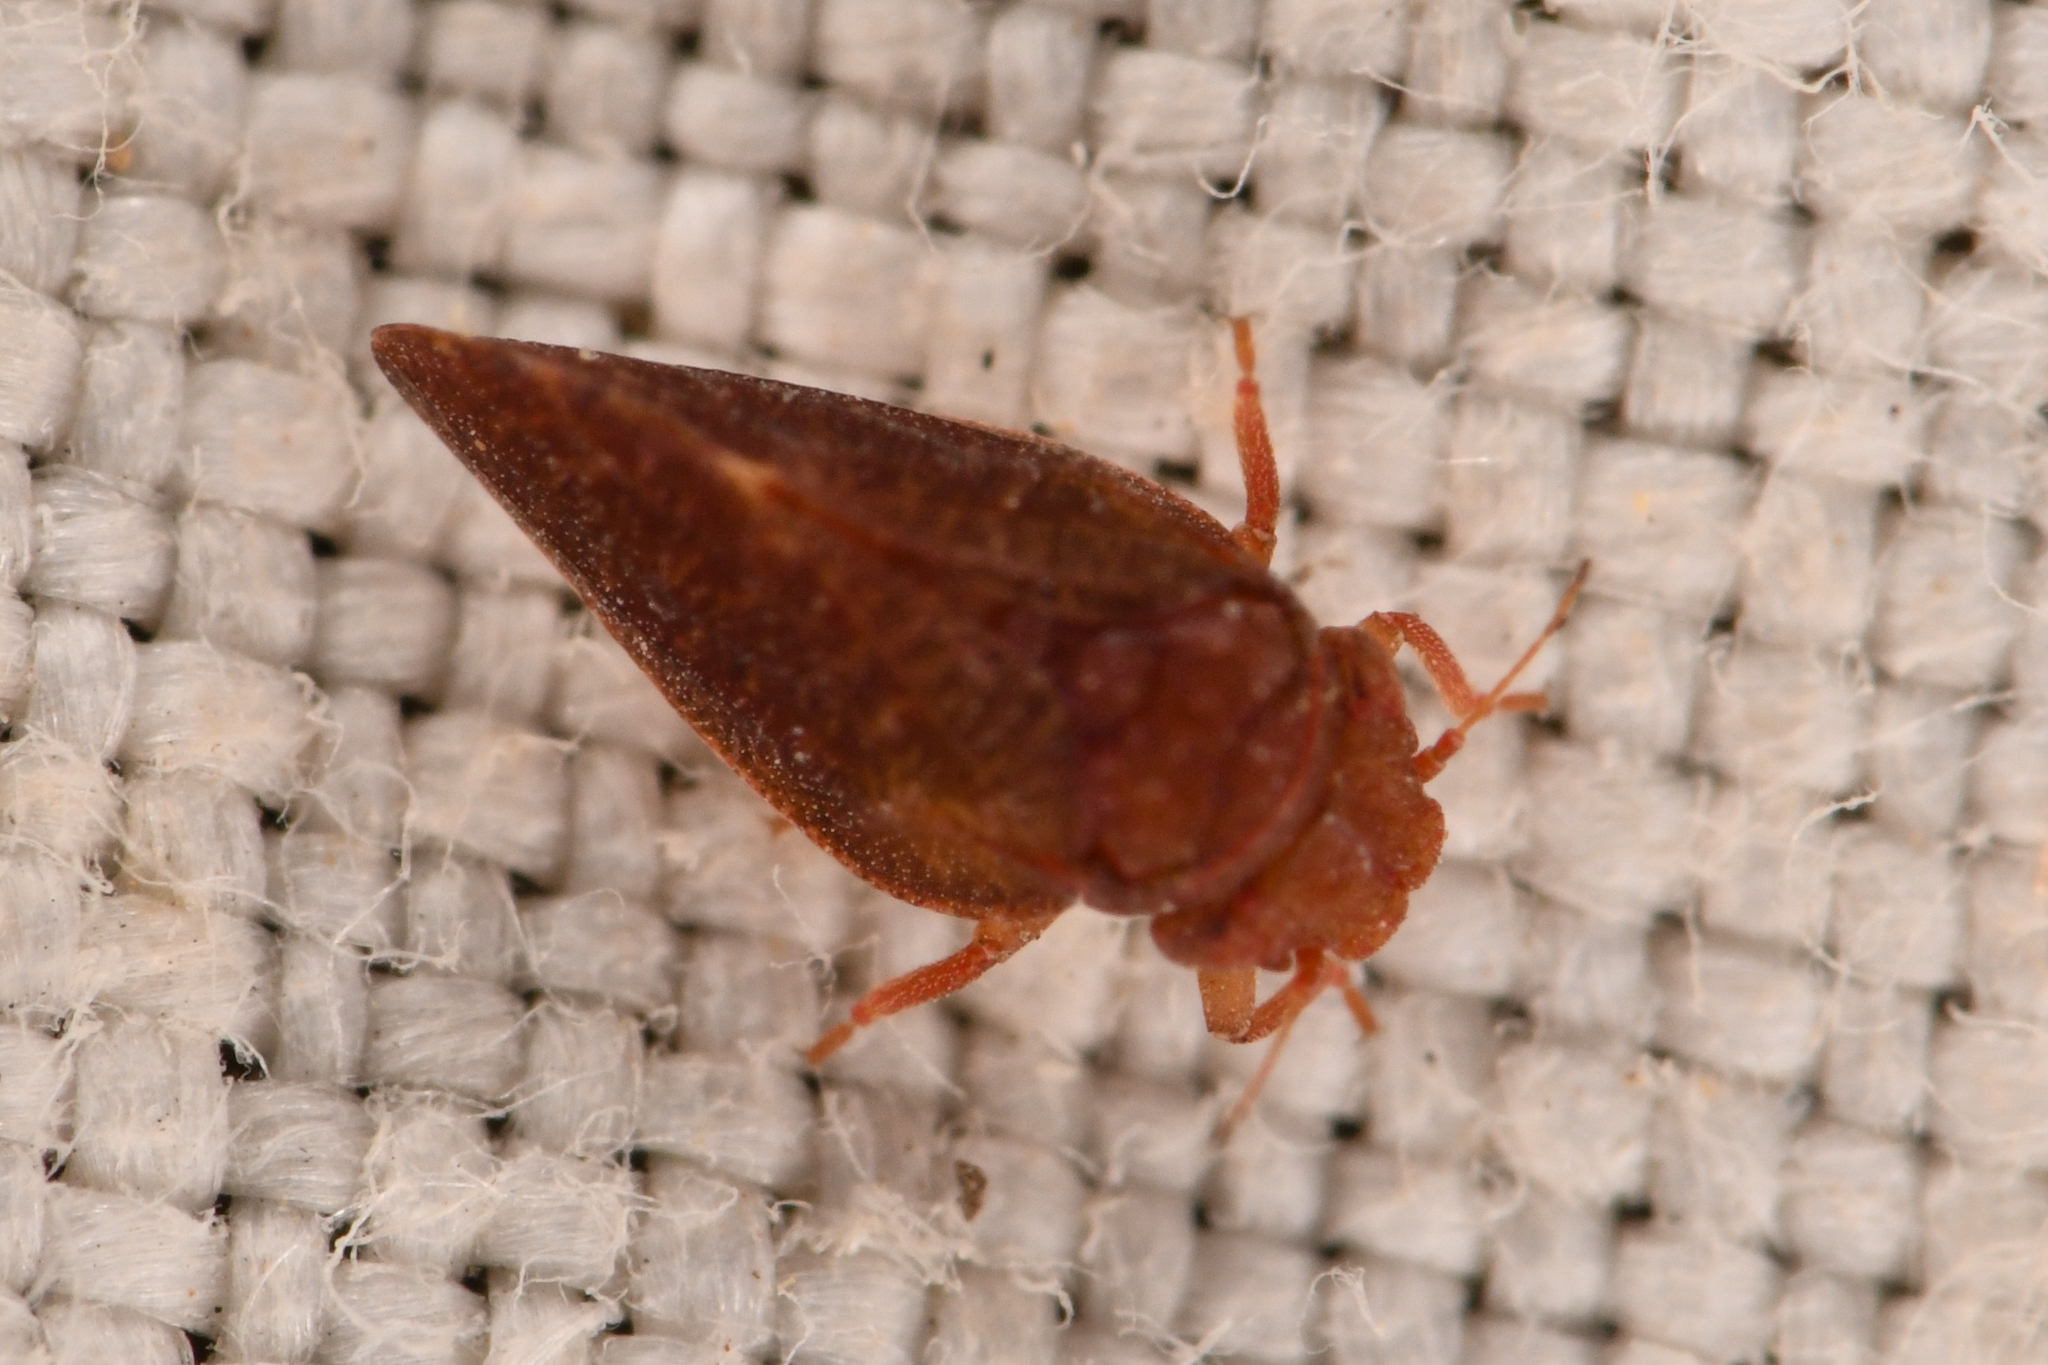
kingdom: Animalia
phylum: Arthropoda
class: Insecta
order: Hemiptera
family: Liviidae
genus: Neophyllura
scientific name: Neophyllura arctostaphyli
